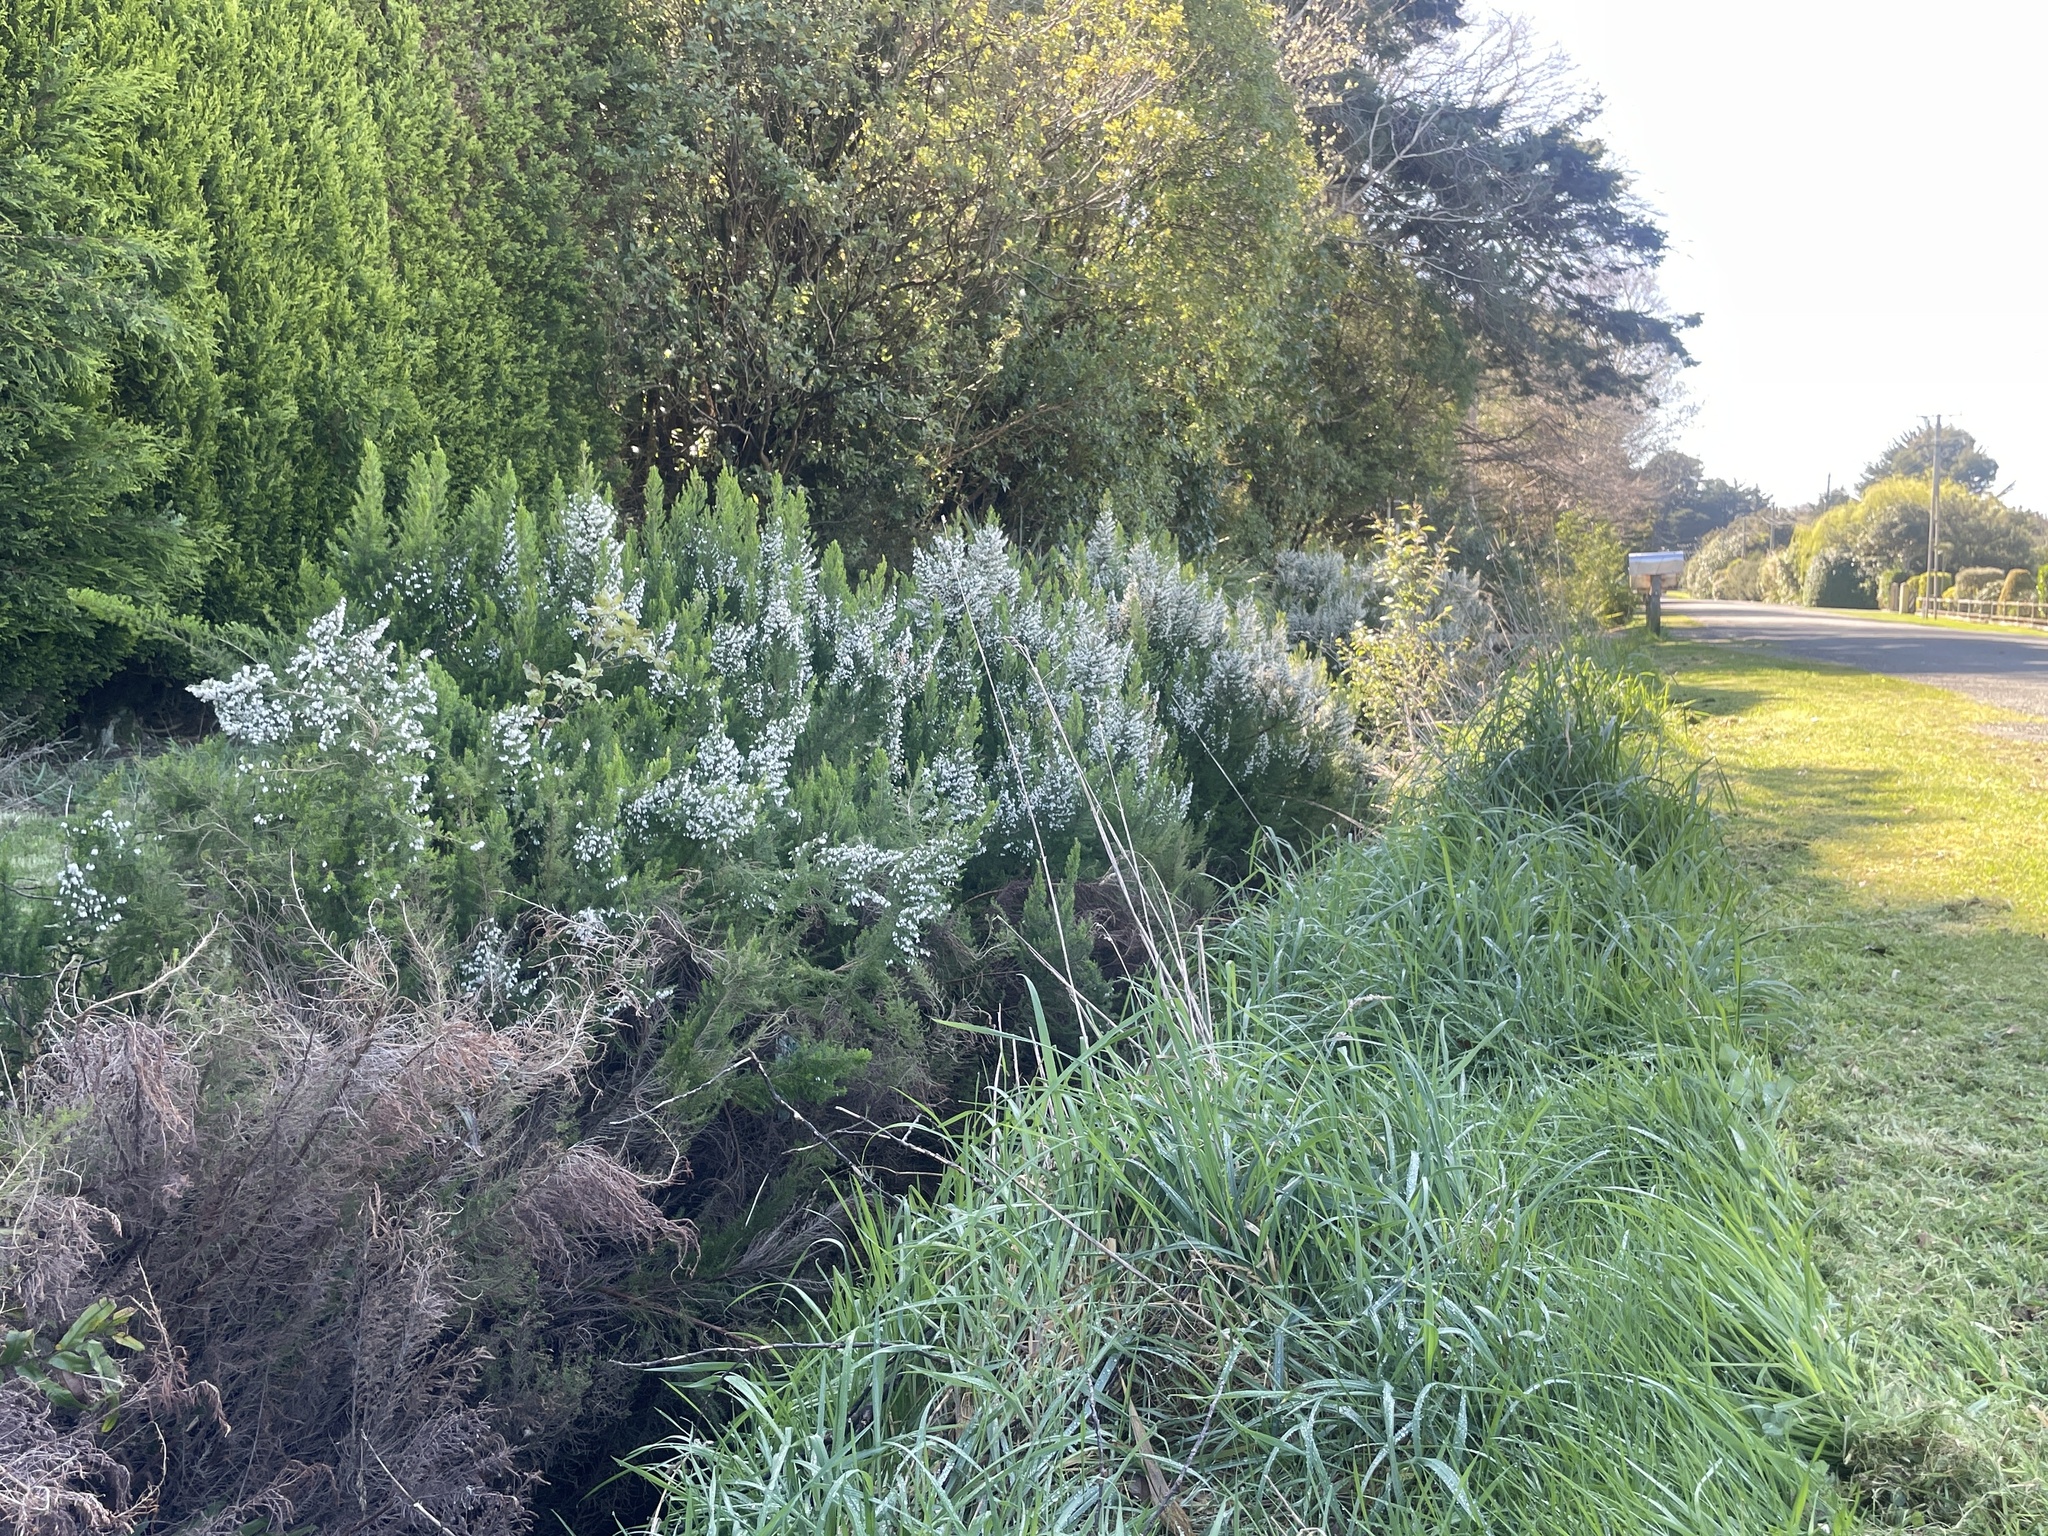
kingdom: Plantae
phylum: Tracheophyta
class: Magnoliopsida
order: Ericales
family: Ericaceae
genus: Erica
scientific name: Erica lusitanica
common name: Spanish heath
